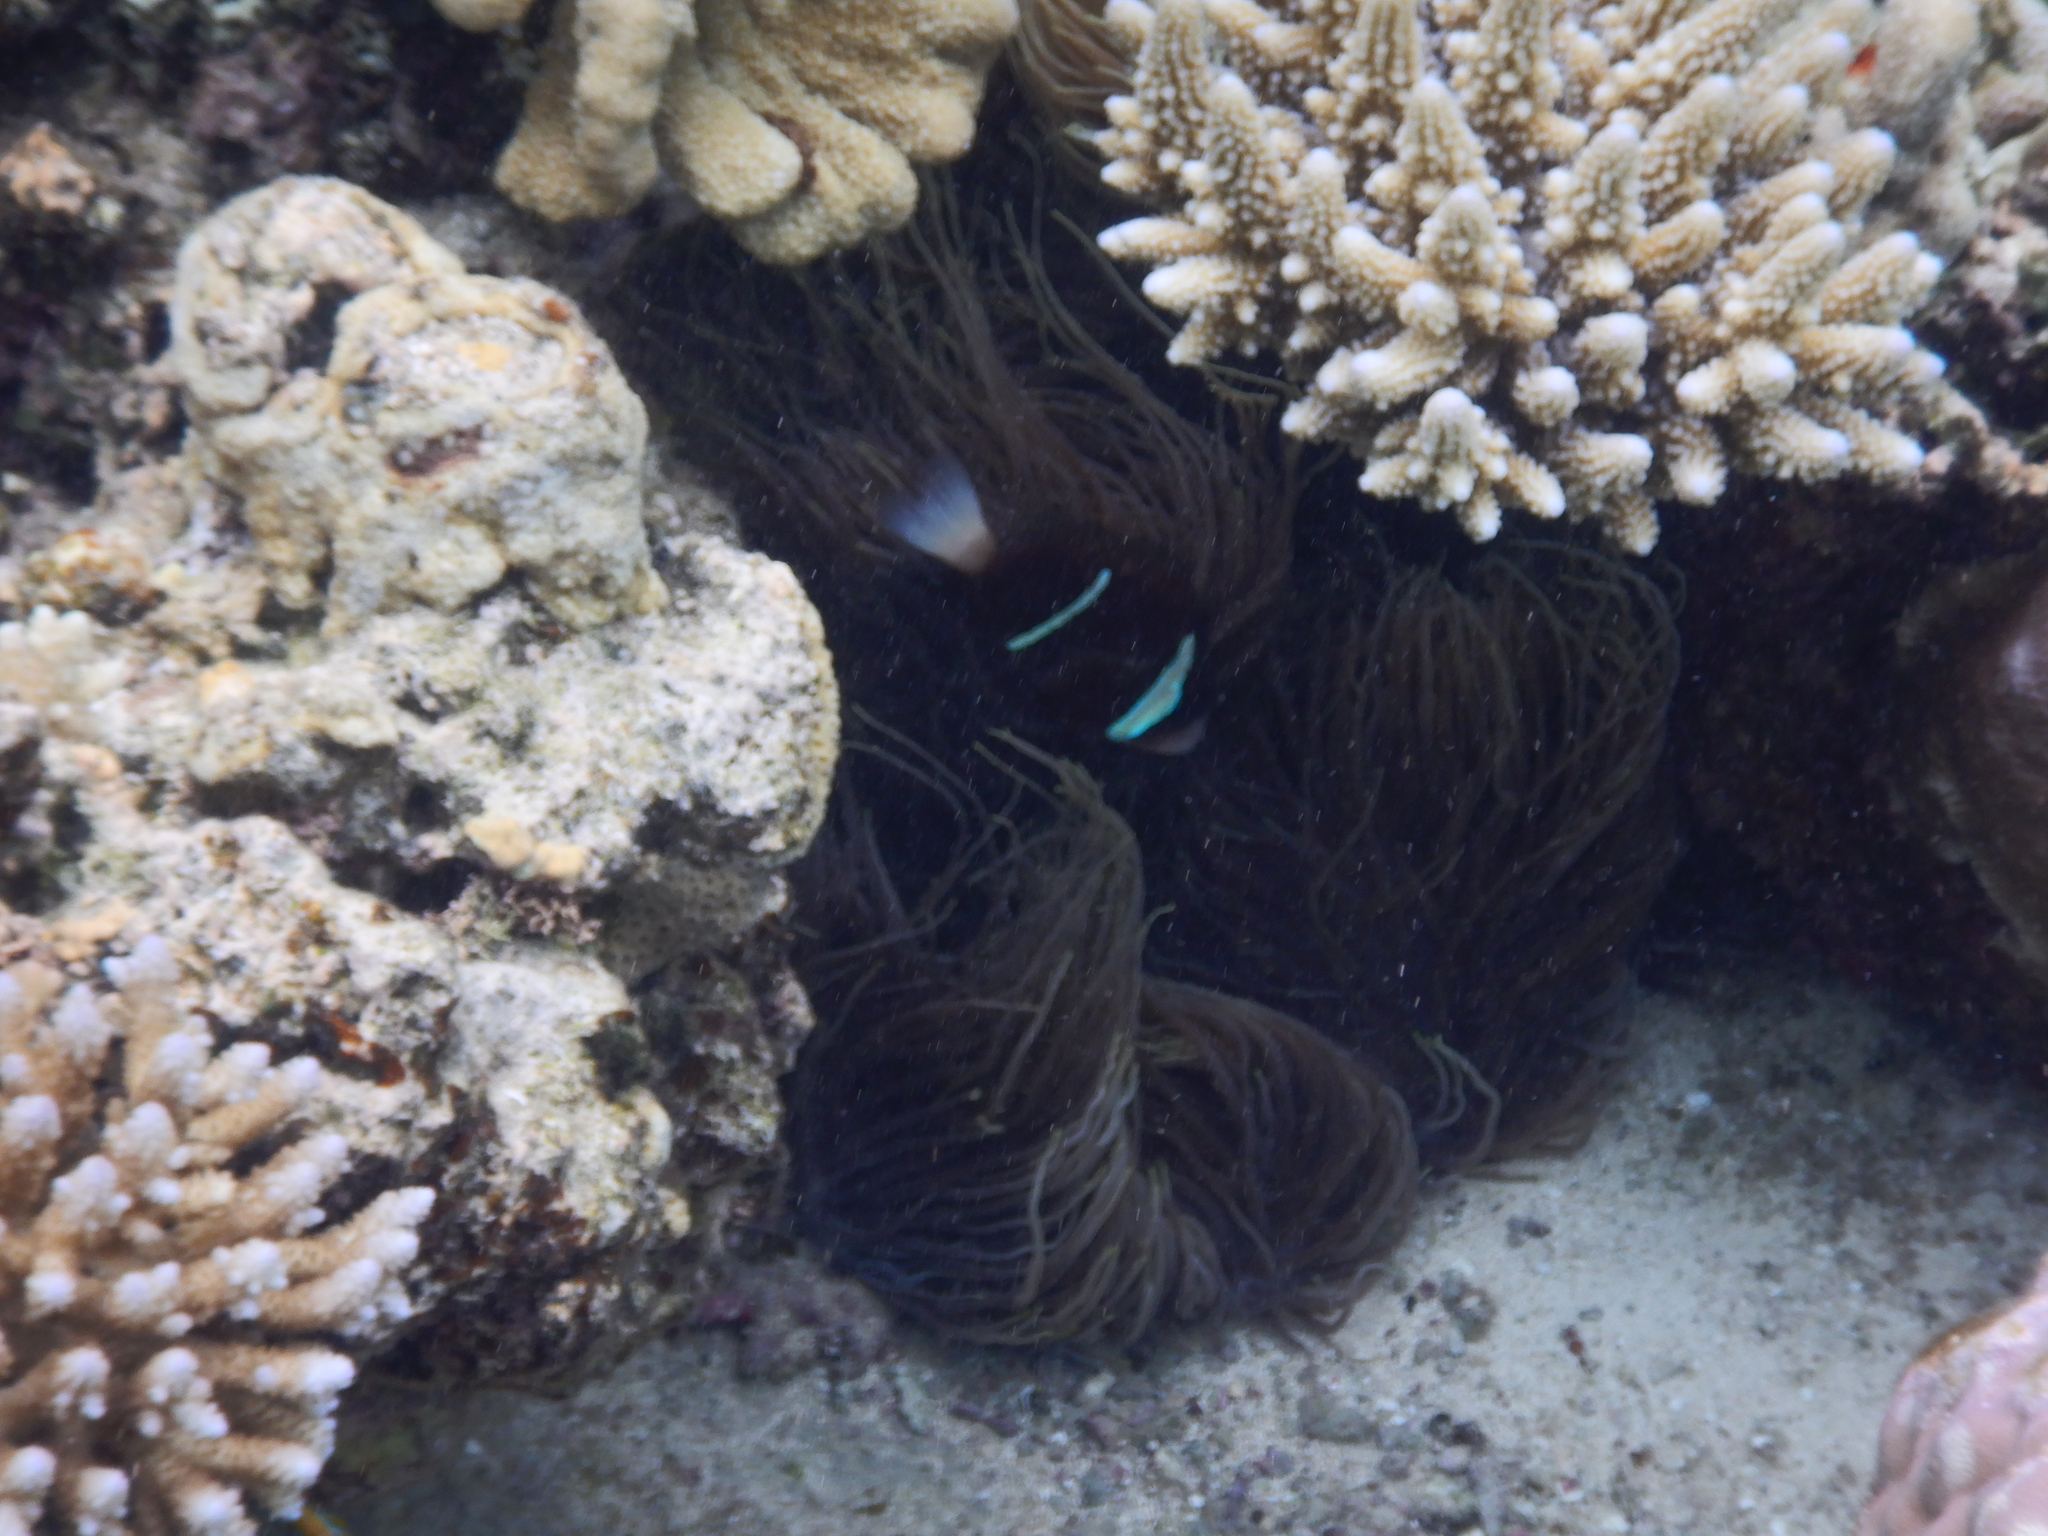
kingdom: Animalia
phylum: Chordata
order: Perciformes
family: Pomacentridae
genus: Amphiprion
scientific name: Amphiprion akindynos
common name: Barrier reef anemonefish
